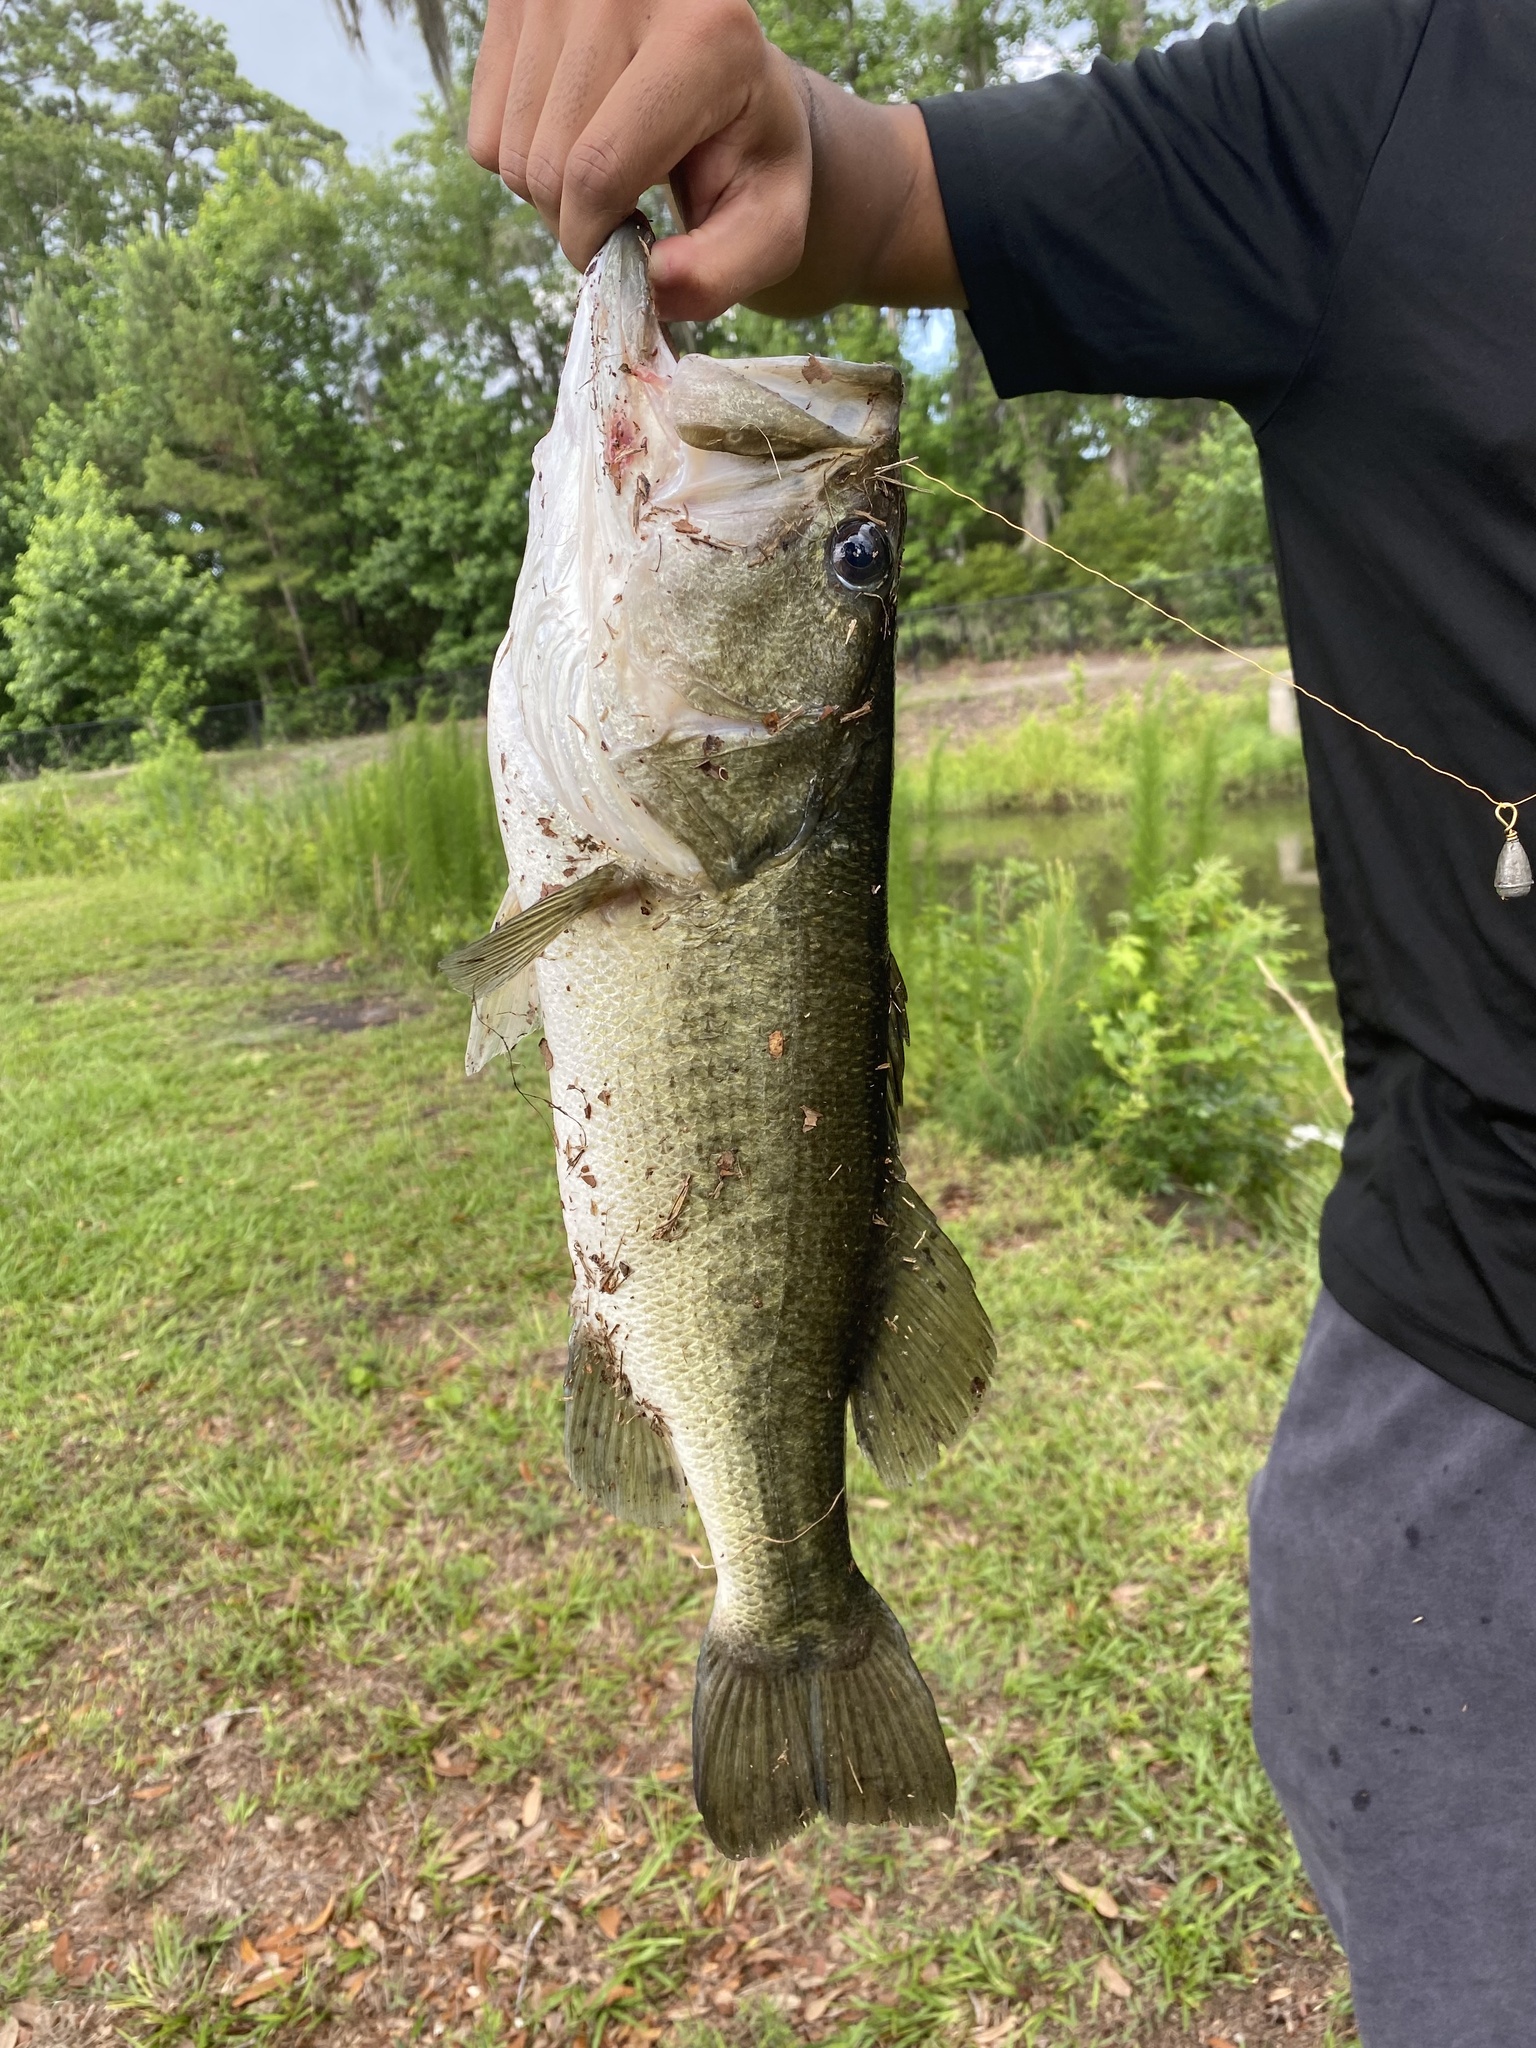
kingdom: Animalia
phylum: Chordata
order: Perciformes
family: Centrarchidae
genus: Micropterus
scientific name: Micropterus salmoides
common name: Largemouth bass
